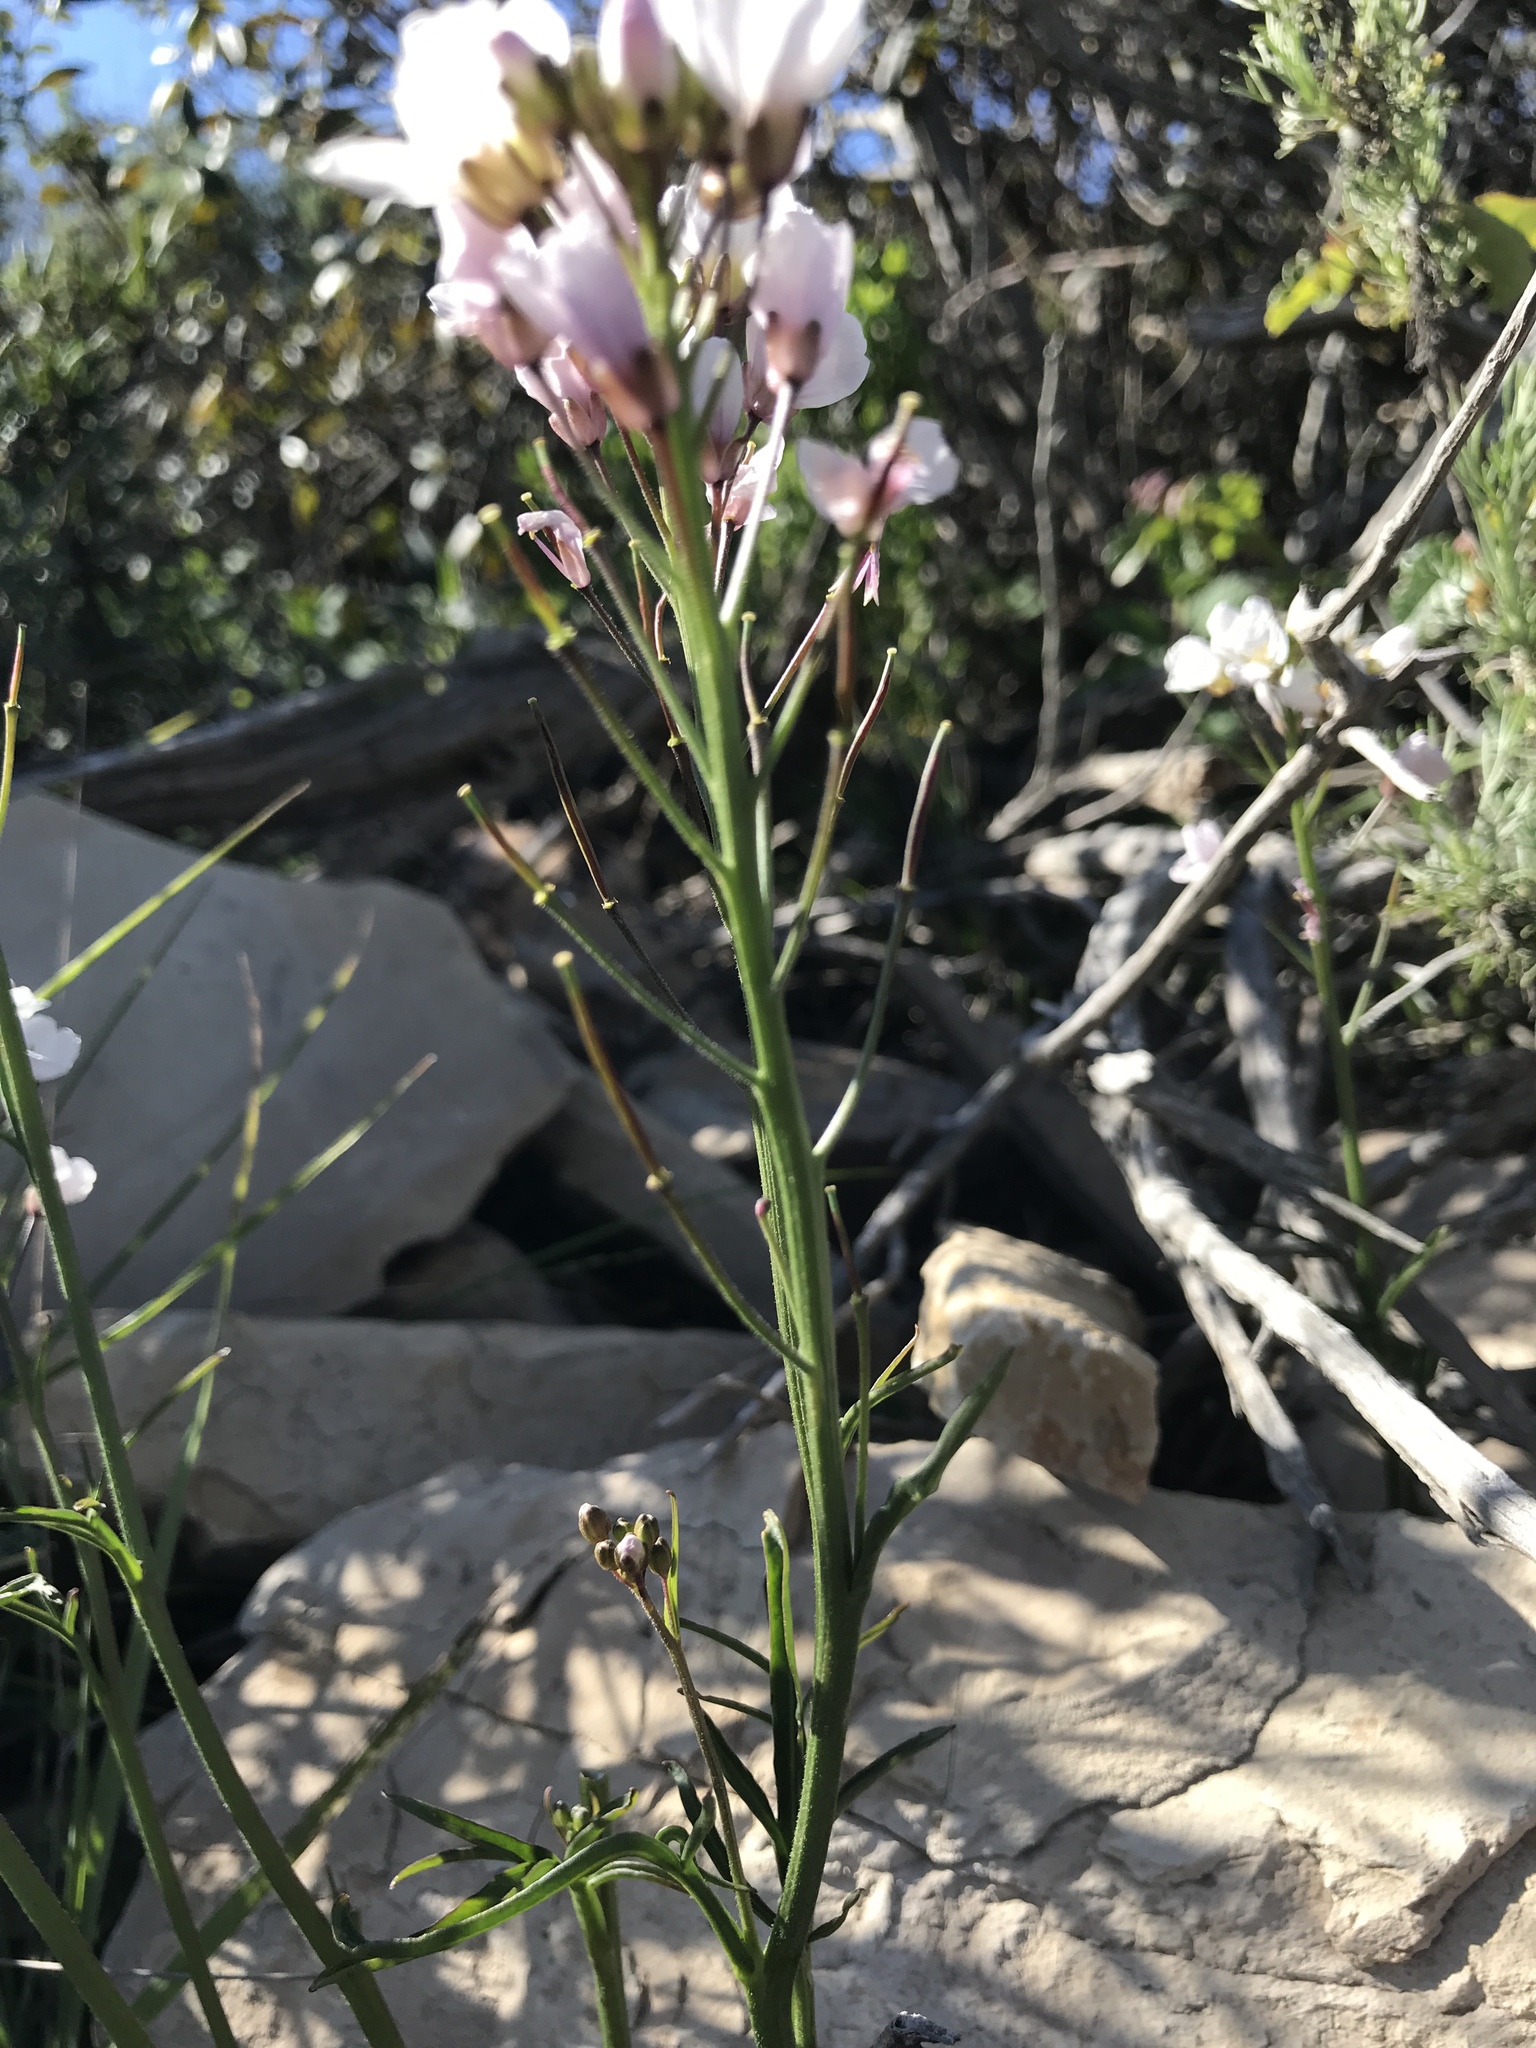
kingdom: Plantae
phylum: Tracheophyta
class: Magnoliopsida
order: Brassicales
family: Brassicaceae
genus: Cardamine
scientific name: Cardamine californica
